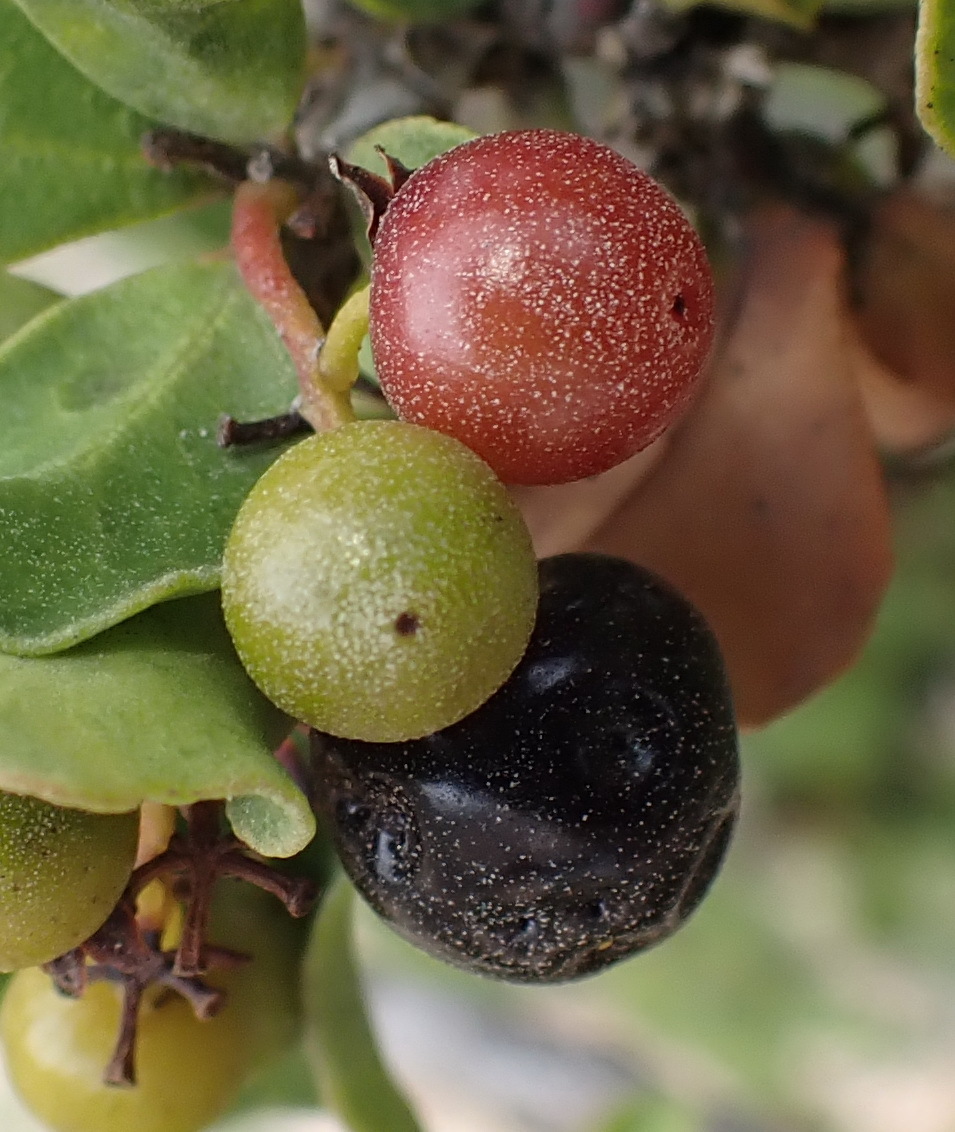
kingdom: Plantae
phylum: Tracheophyta
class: Magnoliopsida
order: Ericales
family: Ebenaceae
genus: Euclea
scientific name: Euclea undulata
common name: Small-leaved guarri
